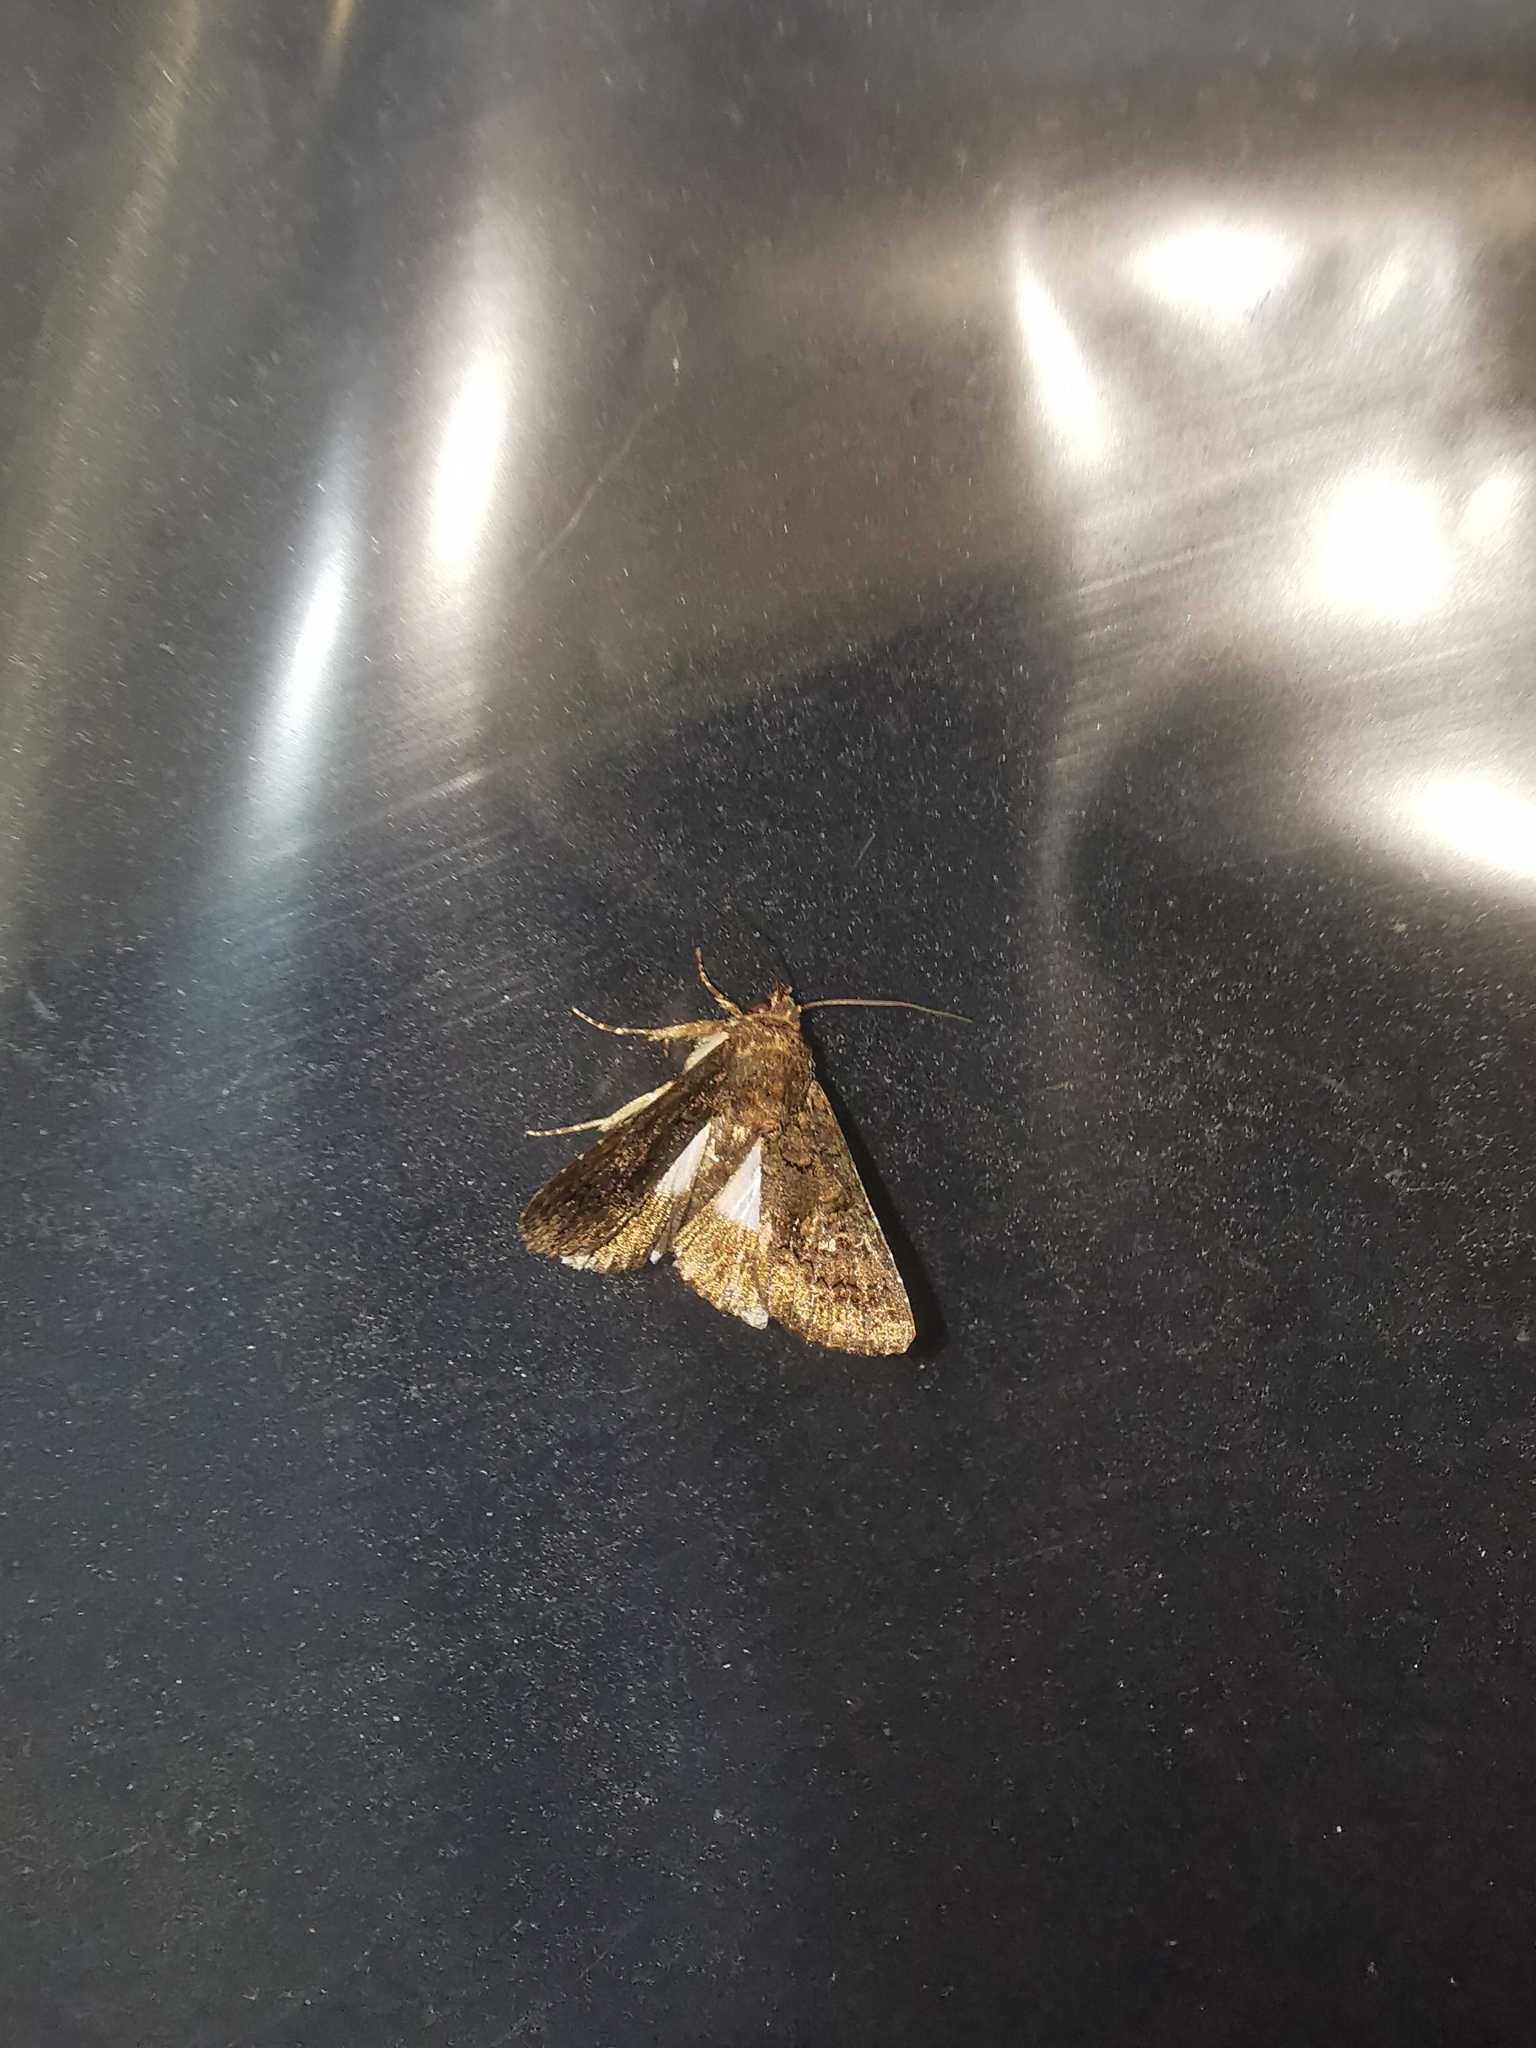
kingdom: Animalia
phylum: Arthropoda
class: Insecta
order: Lepidoptera
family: Noctuidae
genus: Aedia
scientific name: Aedia leucomelas
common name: Sorcerer
